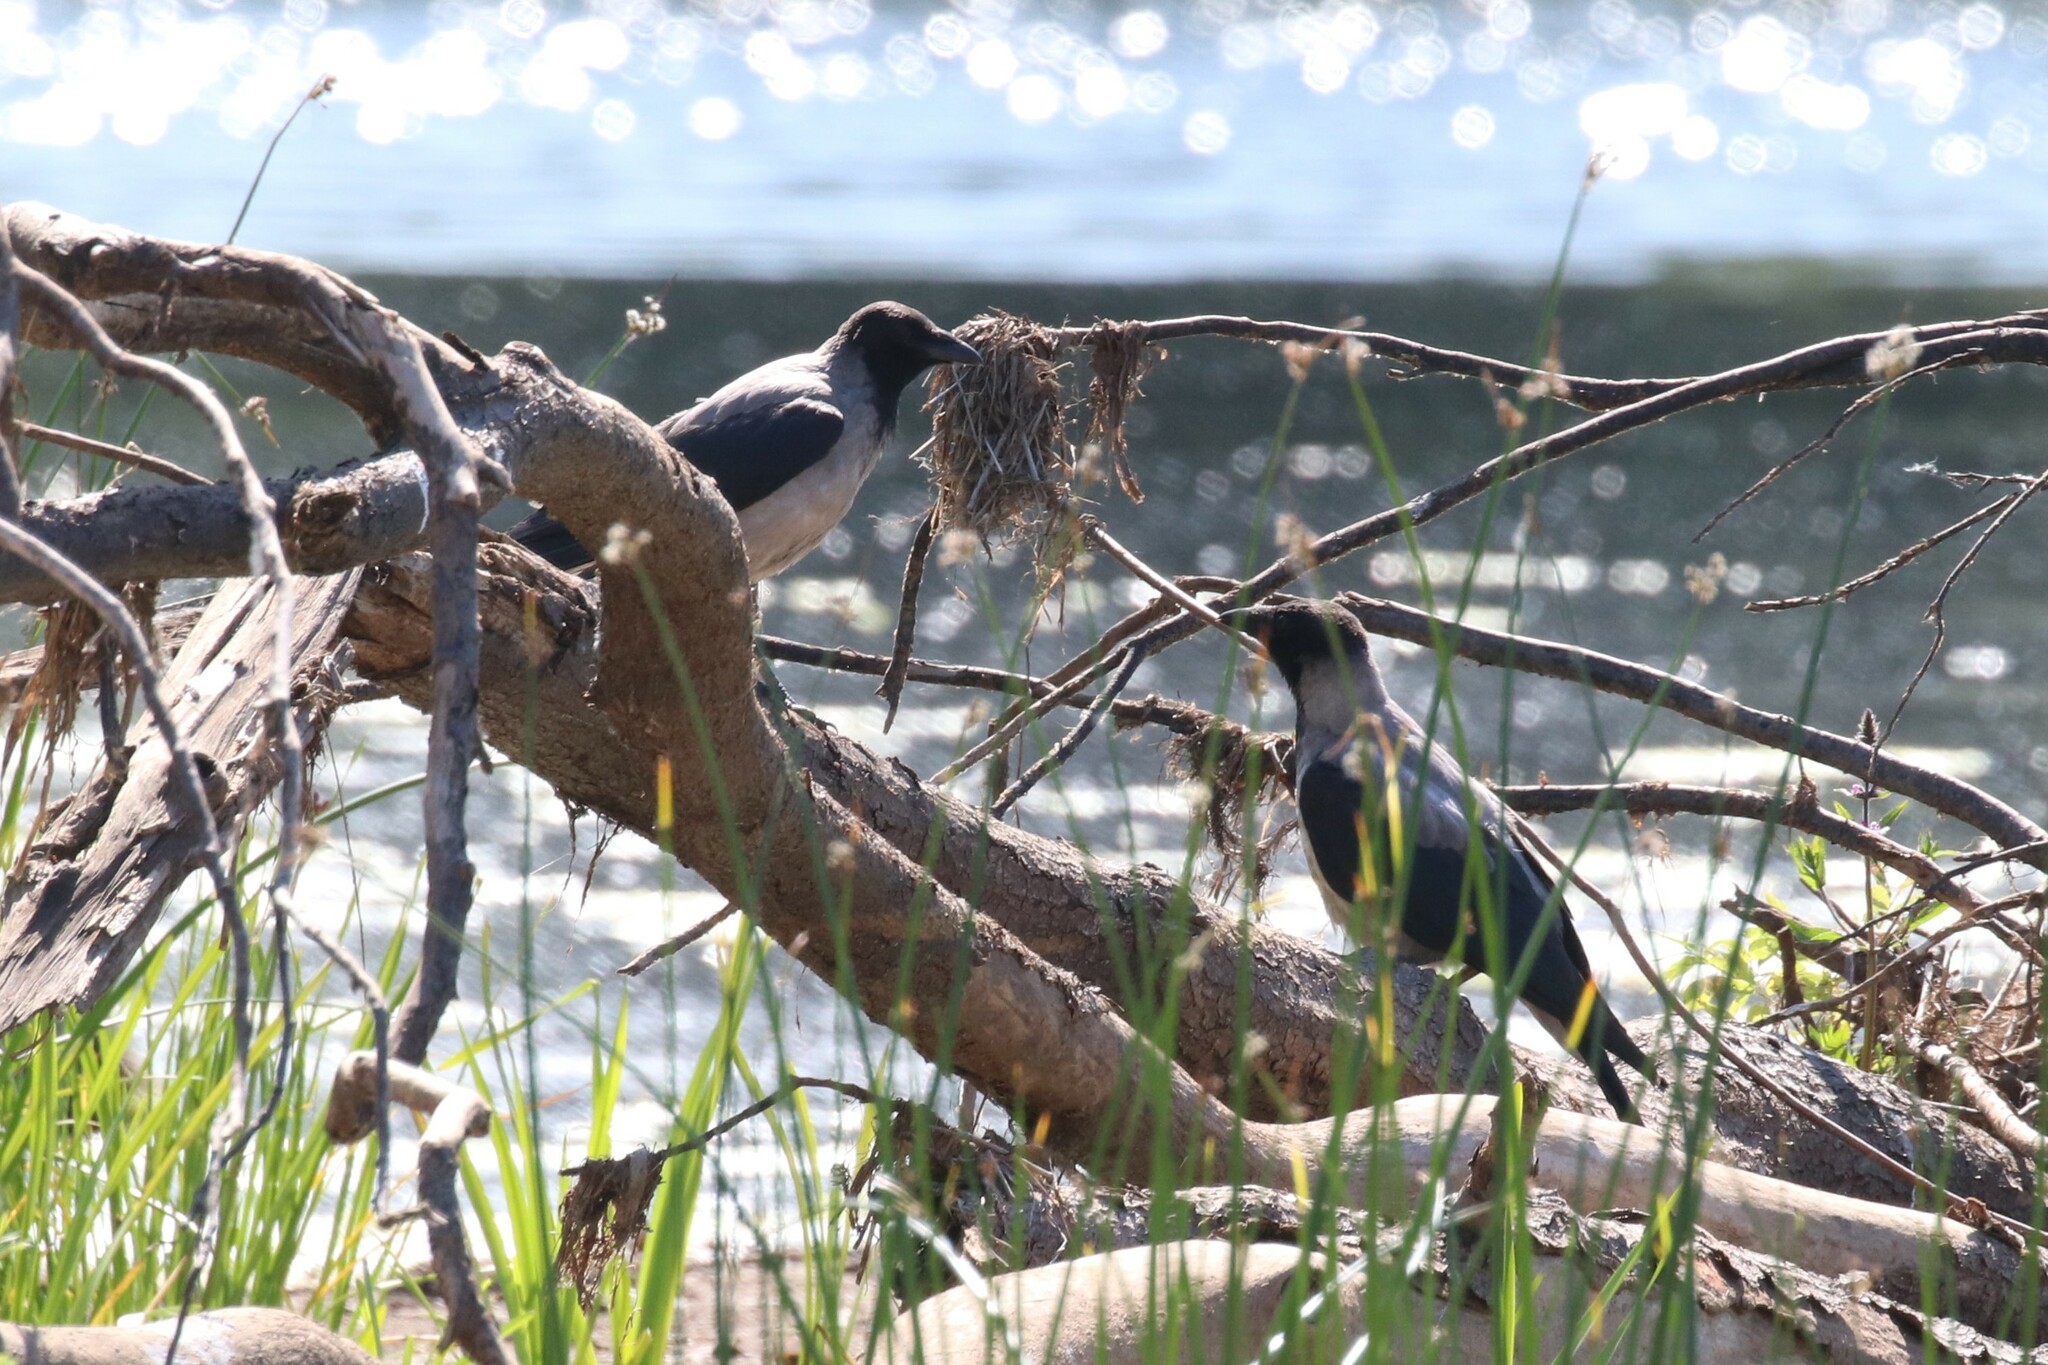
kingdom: Animalia
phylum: Chordata
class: Aves
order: Passeriformes
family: Corvidae
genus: Corvus
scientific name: Corvus cornix
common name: Hooded crow
